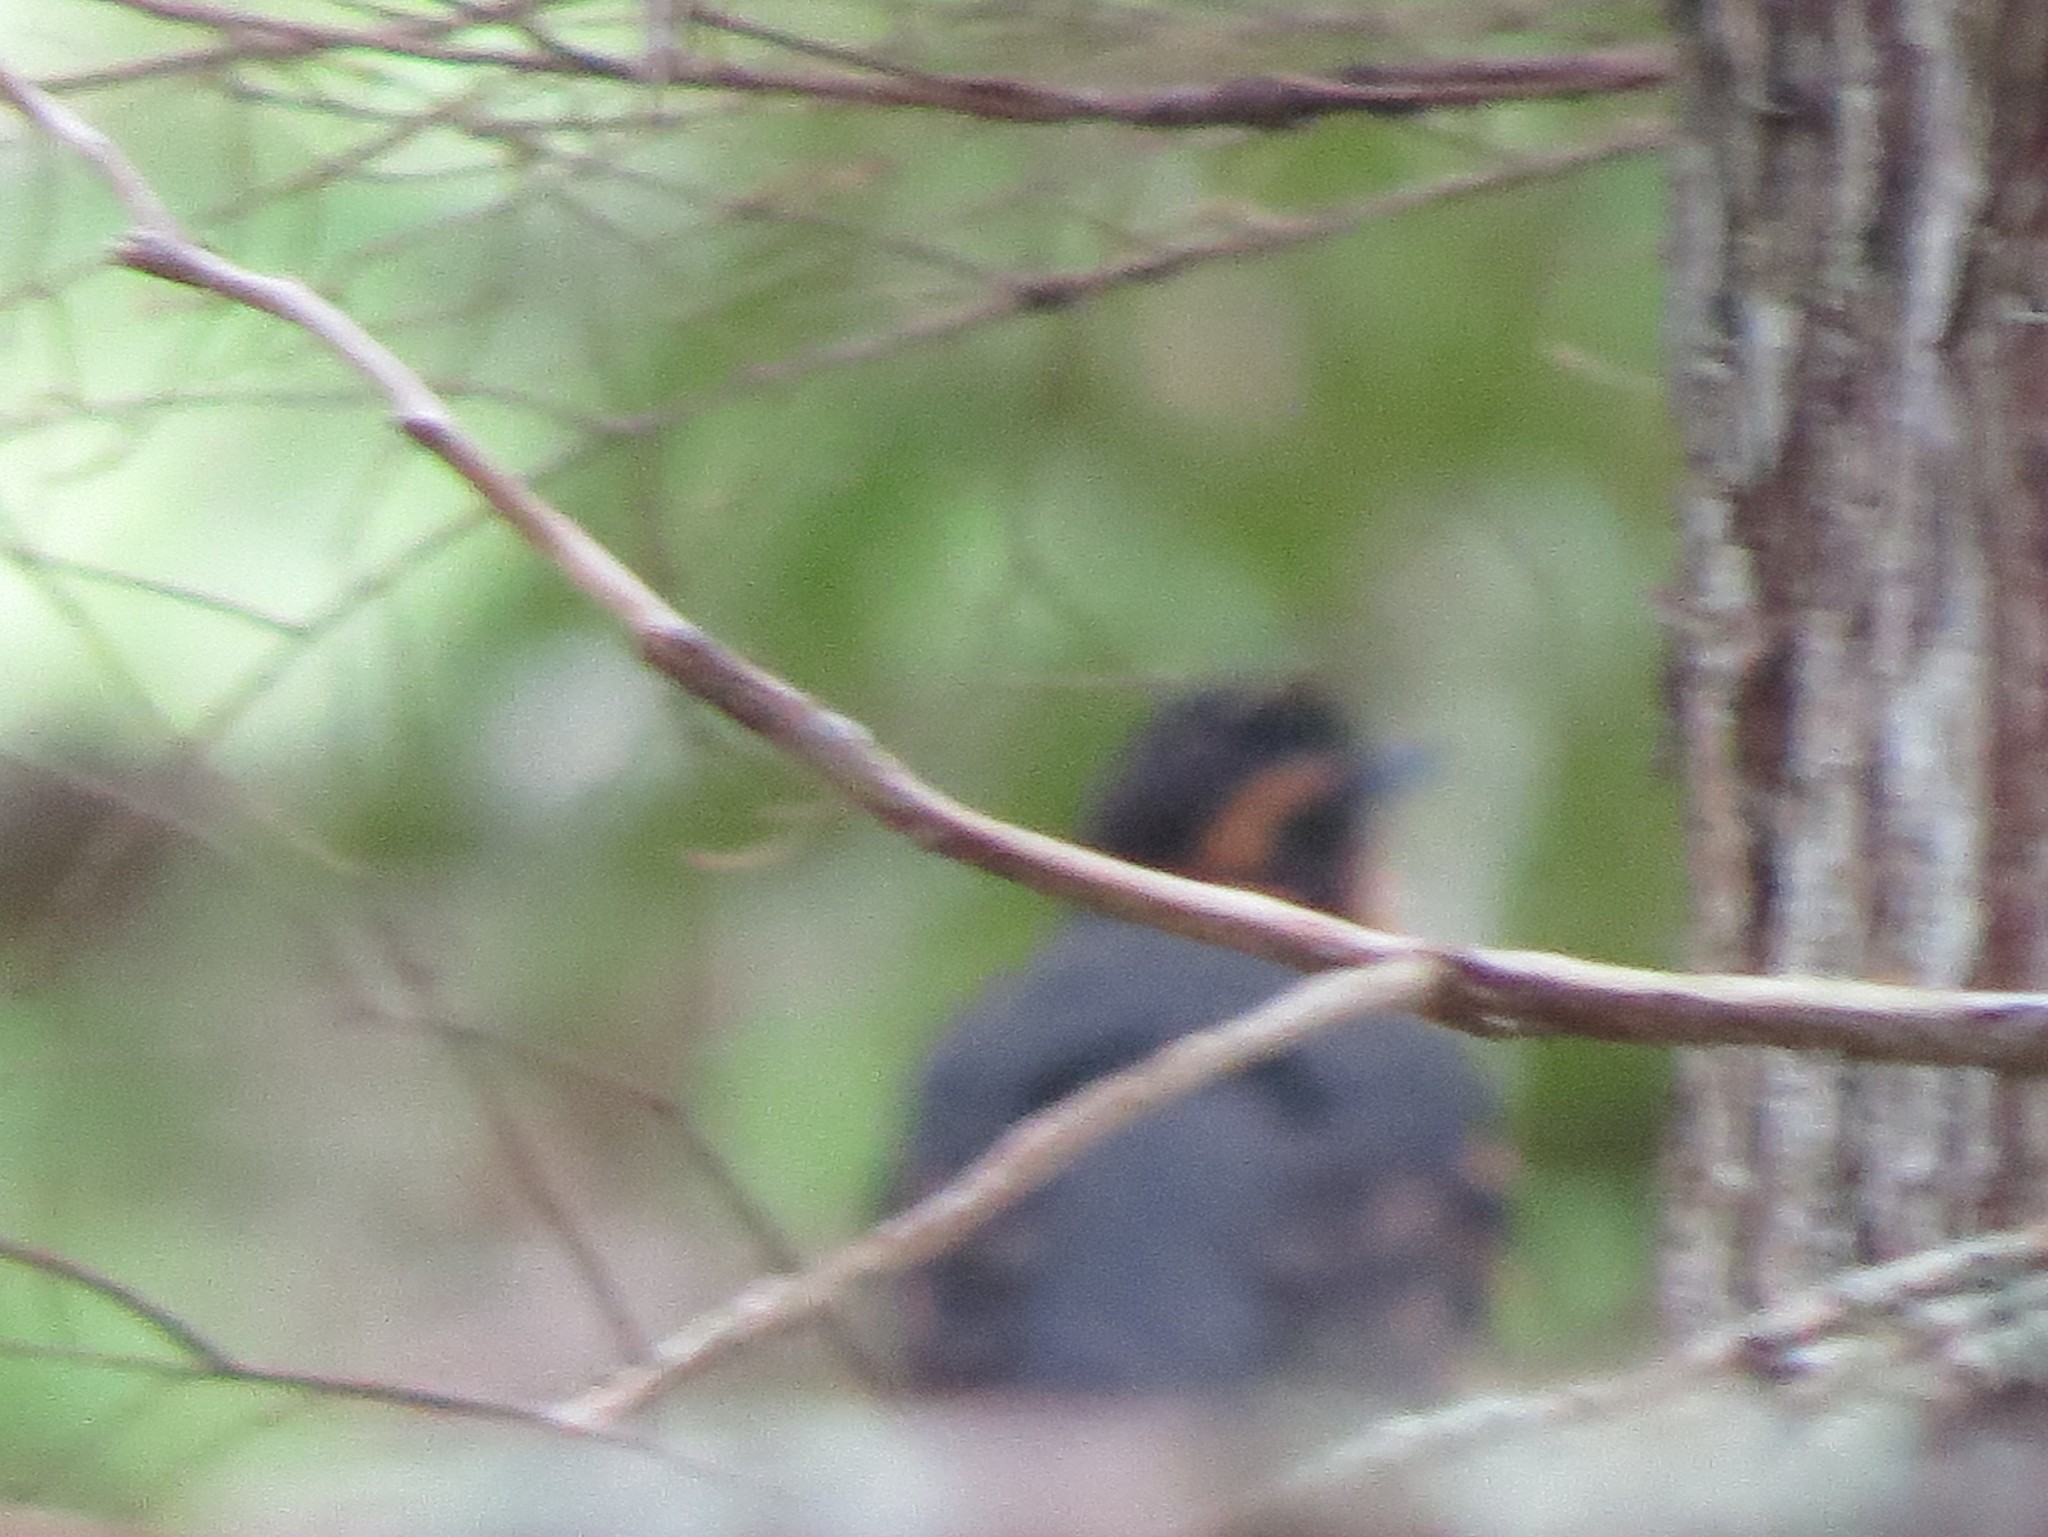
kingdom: Animalia
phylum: Chordata
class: Aves
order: Passeriformes
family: Turdidae
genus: Ixoreus
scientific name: Ixoreus naevius
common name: Varied thrush
